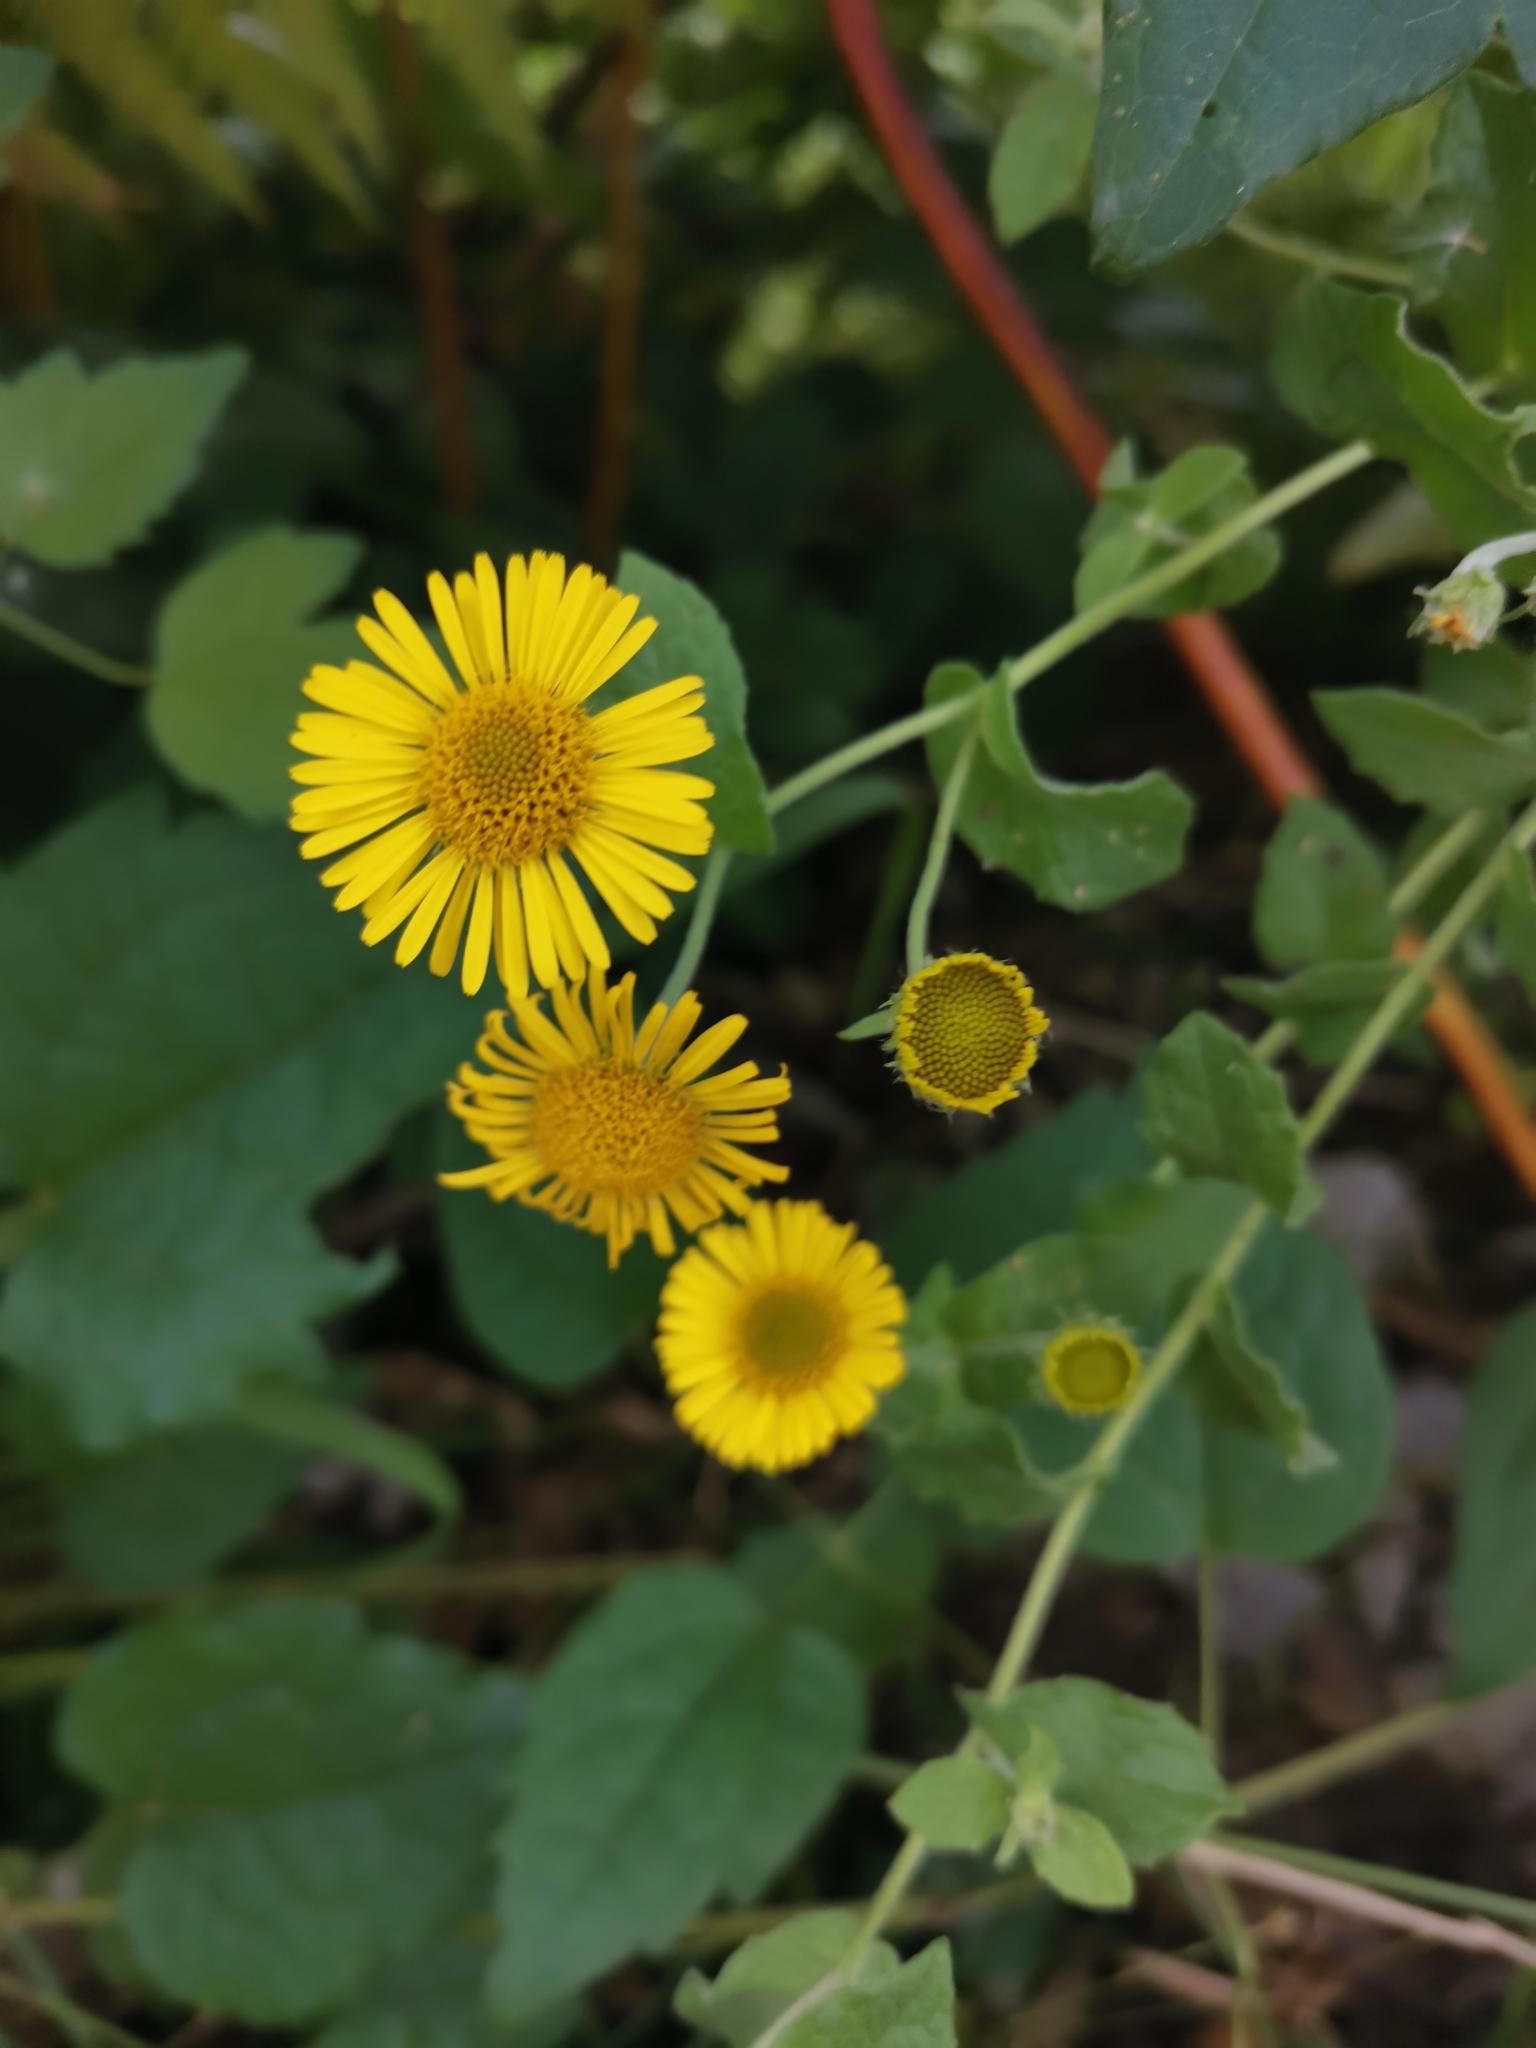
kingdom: Plantae
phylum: Tracheophyta
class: Magnoliopsida
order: Asterales
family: Asteraceae
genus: Pulicaria
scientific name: Pulicaria dysenterica
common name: Common fleabane
